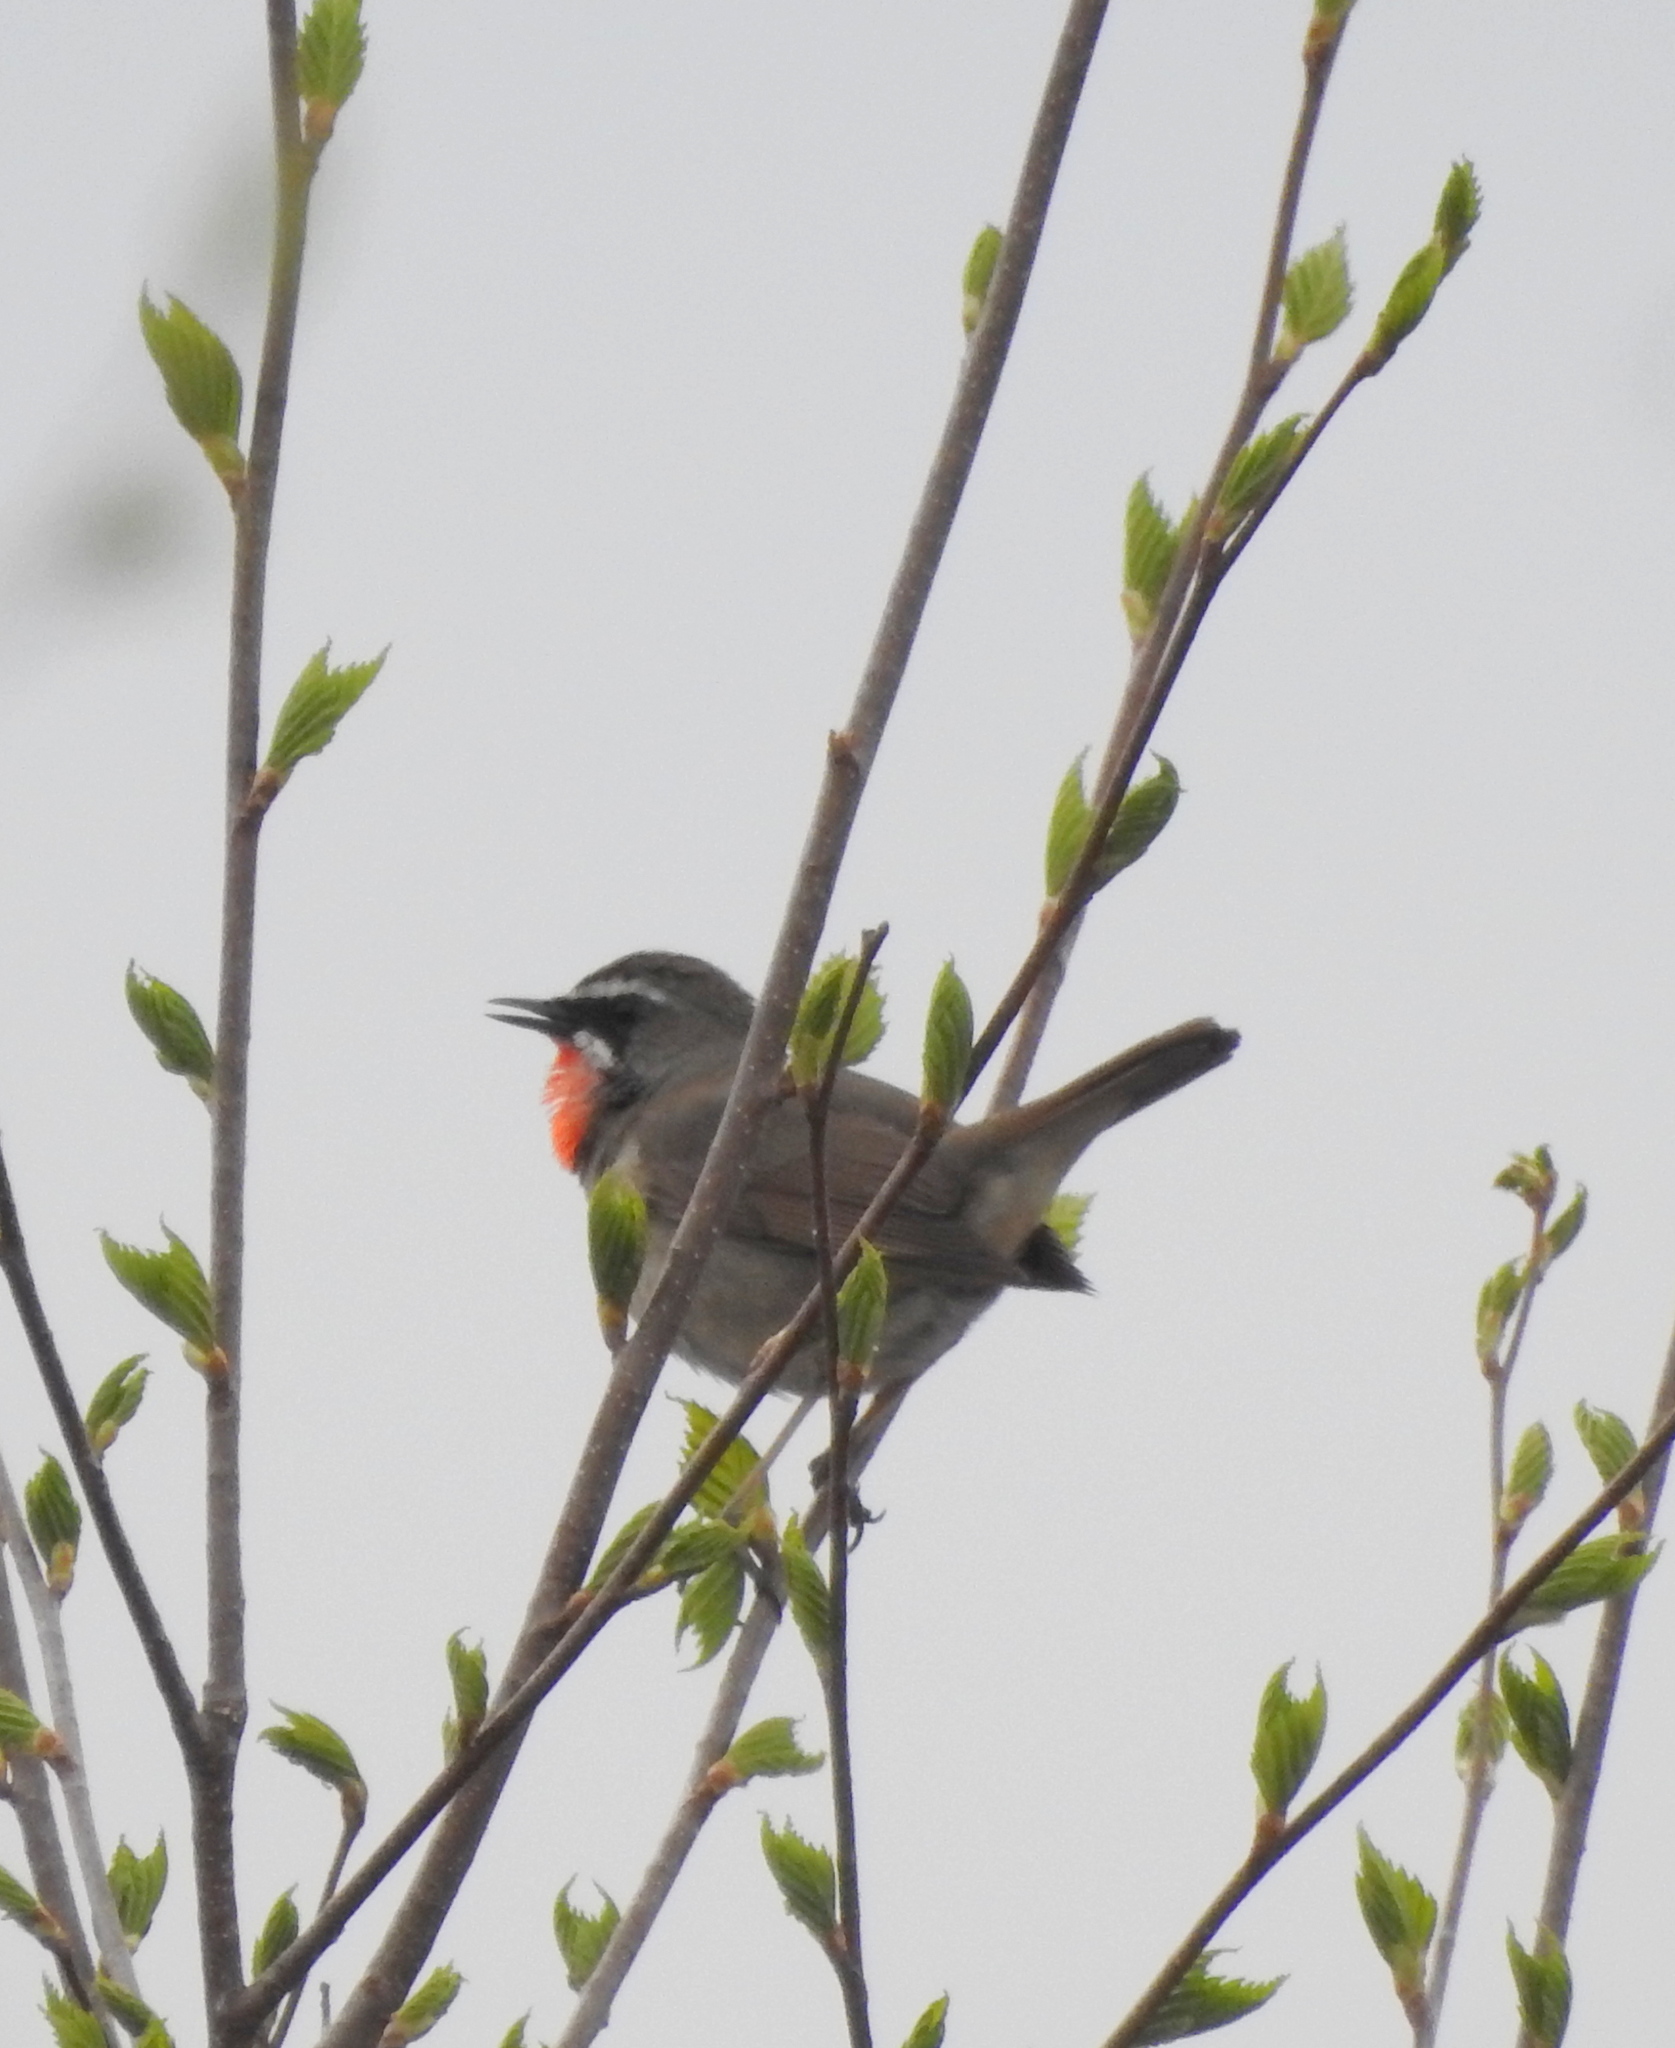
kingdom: Animalia
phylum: Chordata
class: Aves
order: Passeriformes
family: Muscicapidae
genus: Luscinia
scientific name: Luscinia calliope
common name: Siberian rubythroat
